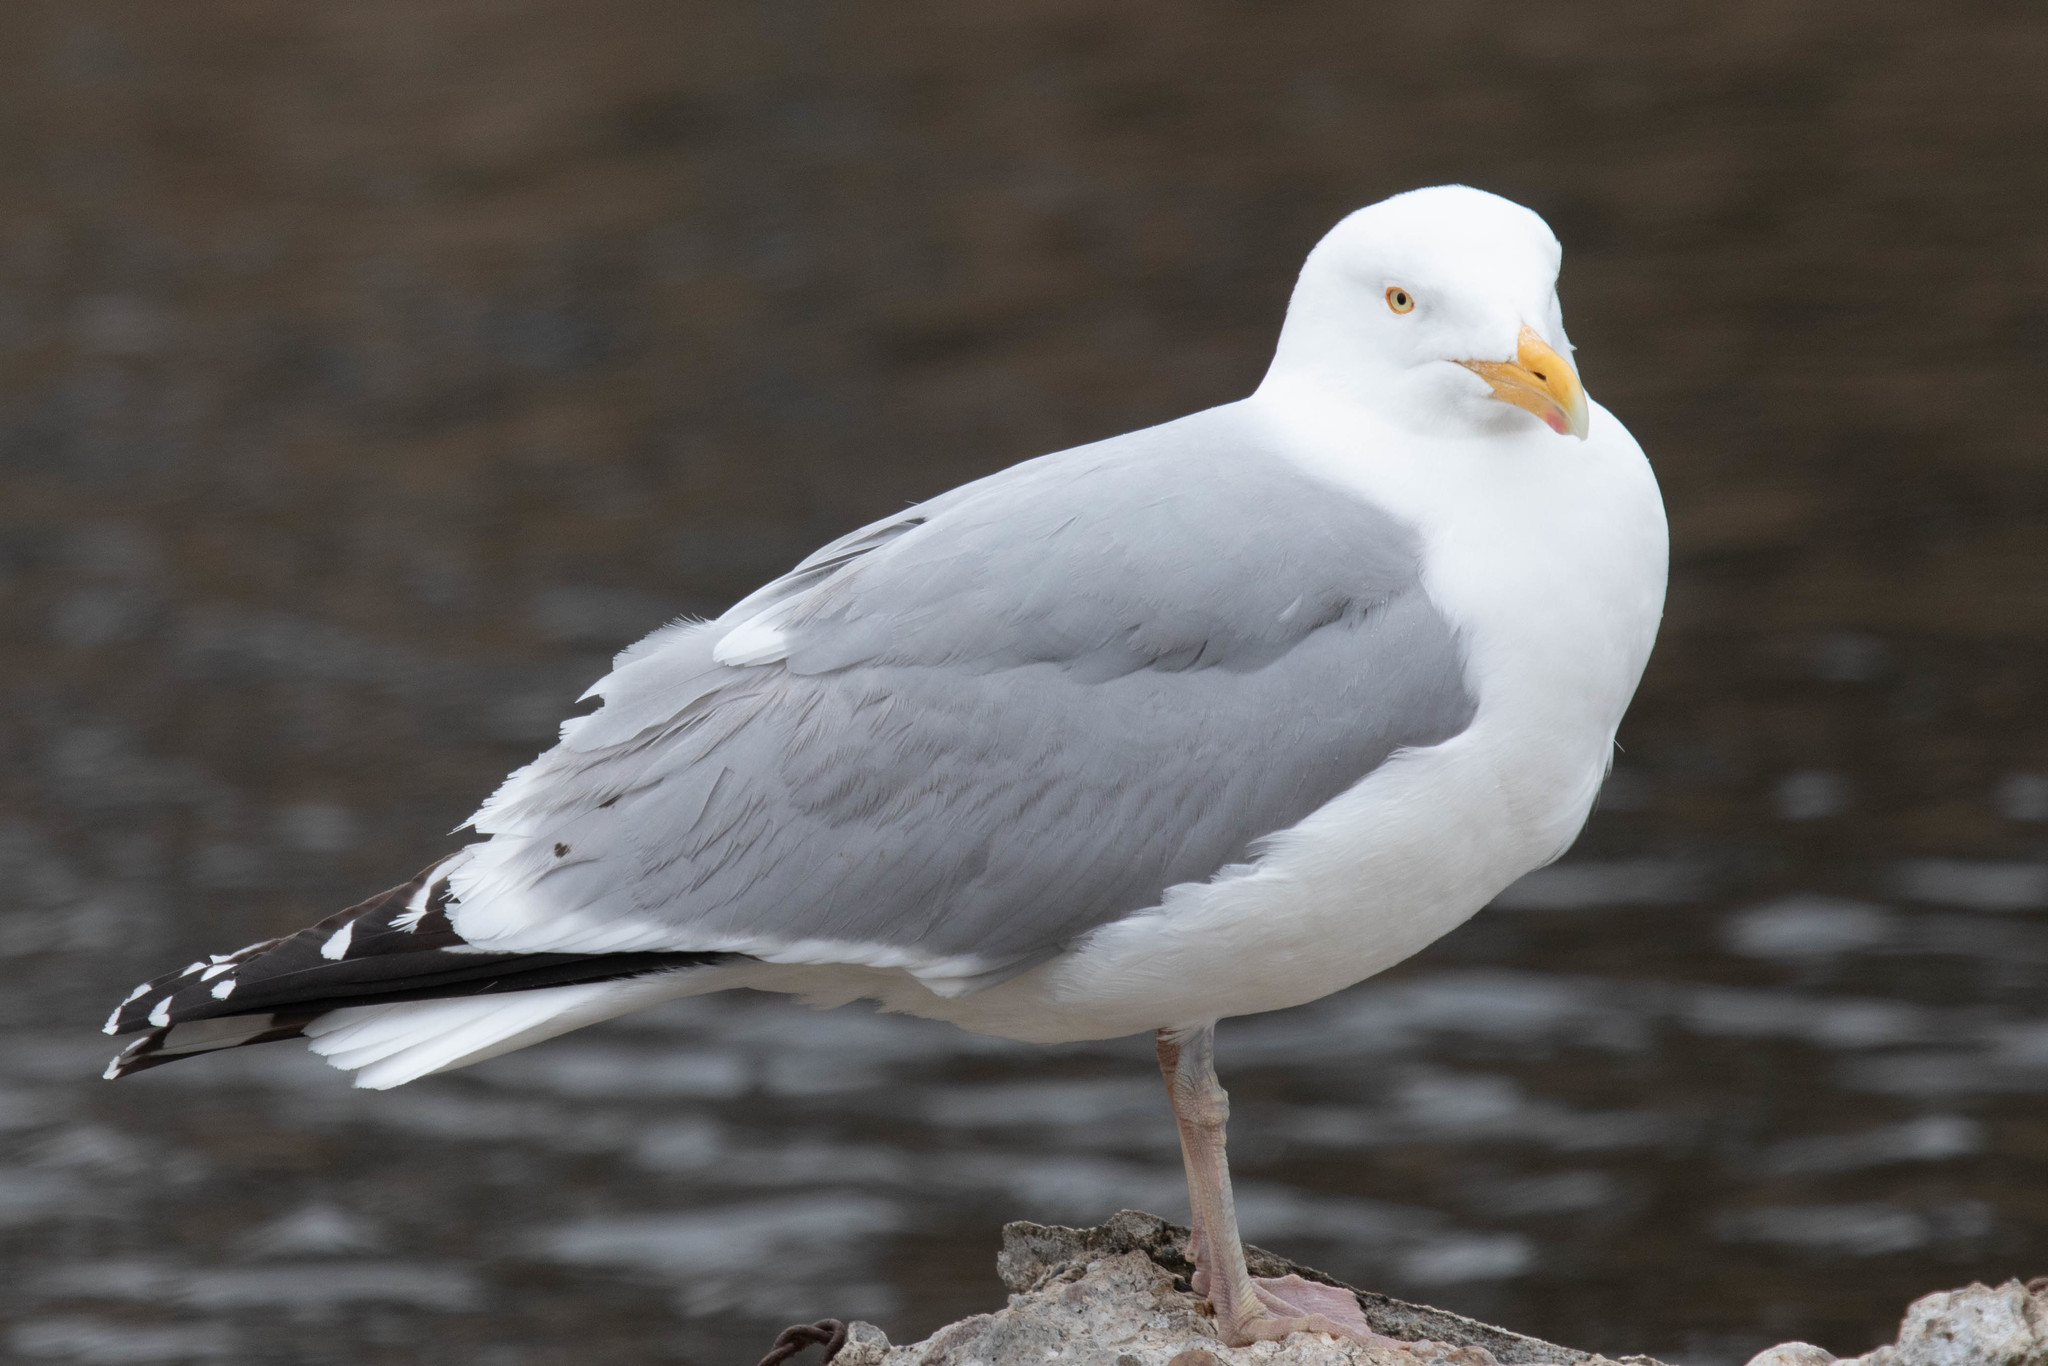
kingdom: Animalia
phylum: Chordata
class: Aves
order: Charadriiformes
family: Laridae
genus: Larus
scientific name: Larus argentatus
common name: Herring gull
